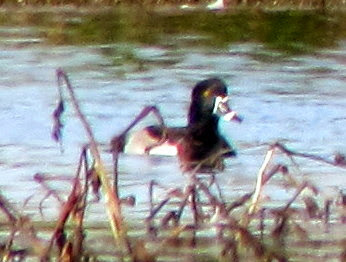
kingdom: Animalia
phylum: Chordata
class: Aves
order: Anseriformes
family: Anatidae
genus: Aythya
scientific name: Aythya collaris
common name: Ring-necked duck
